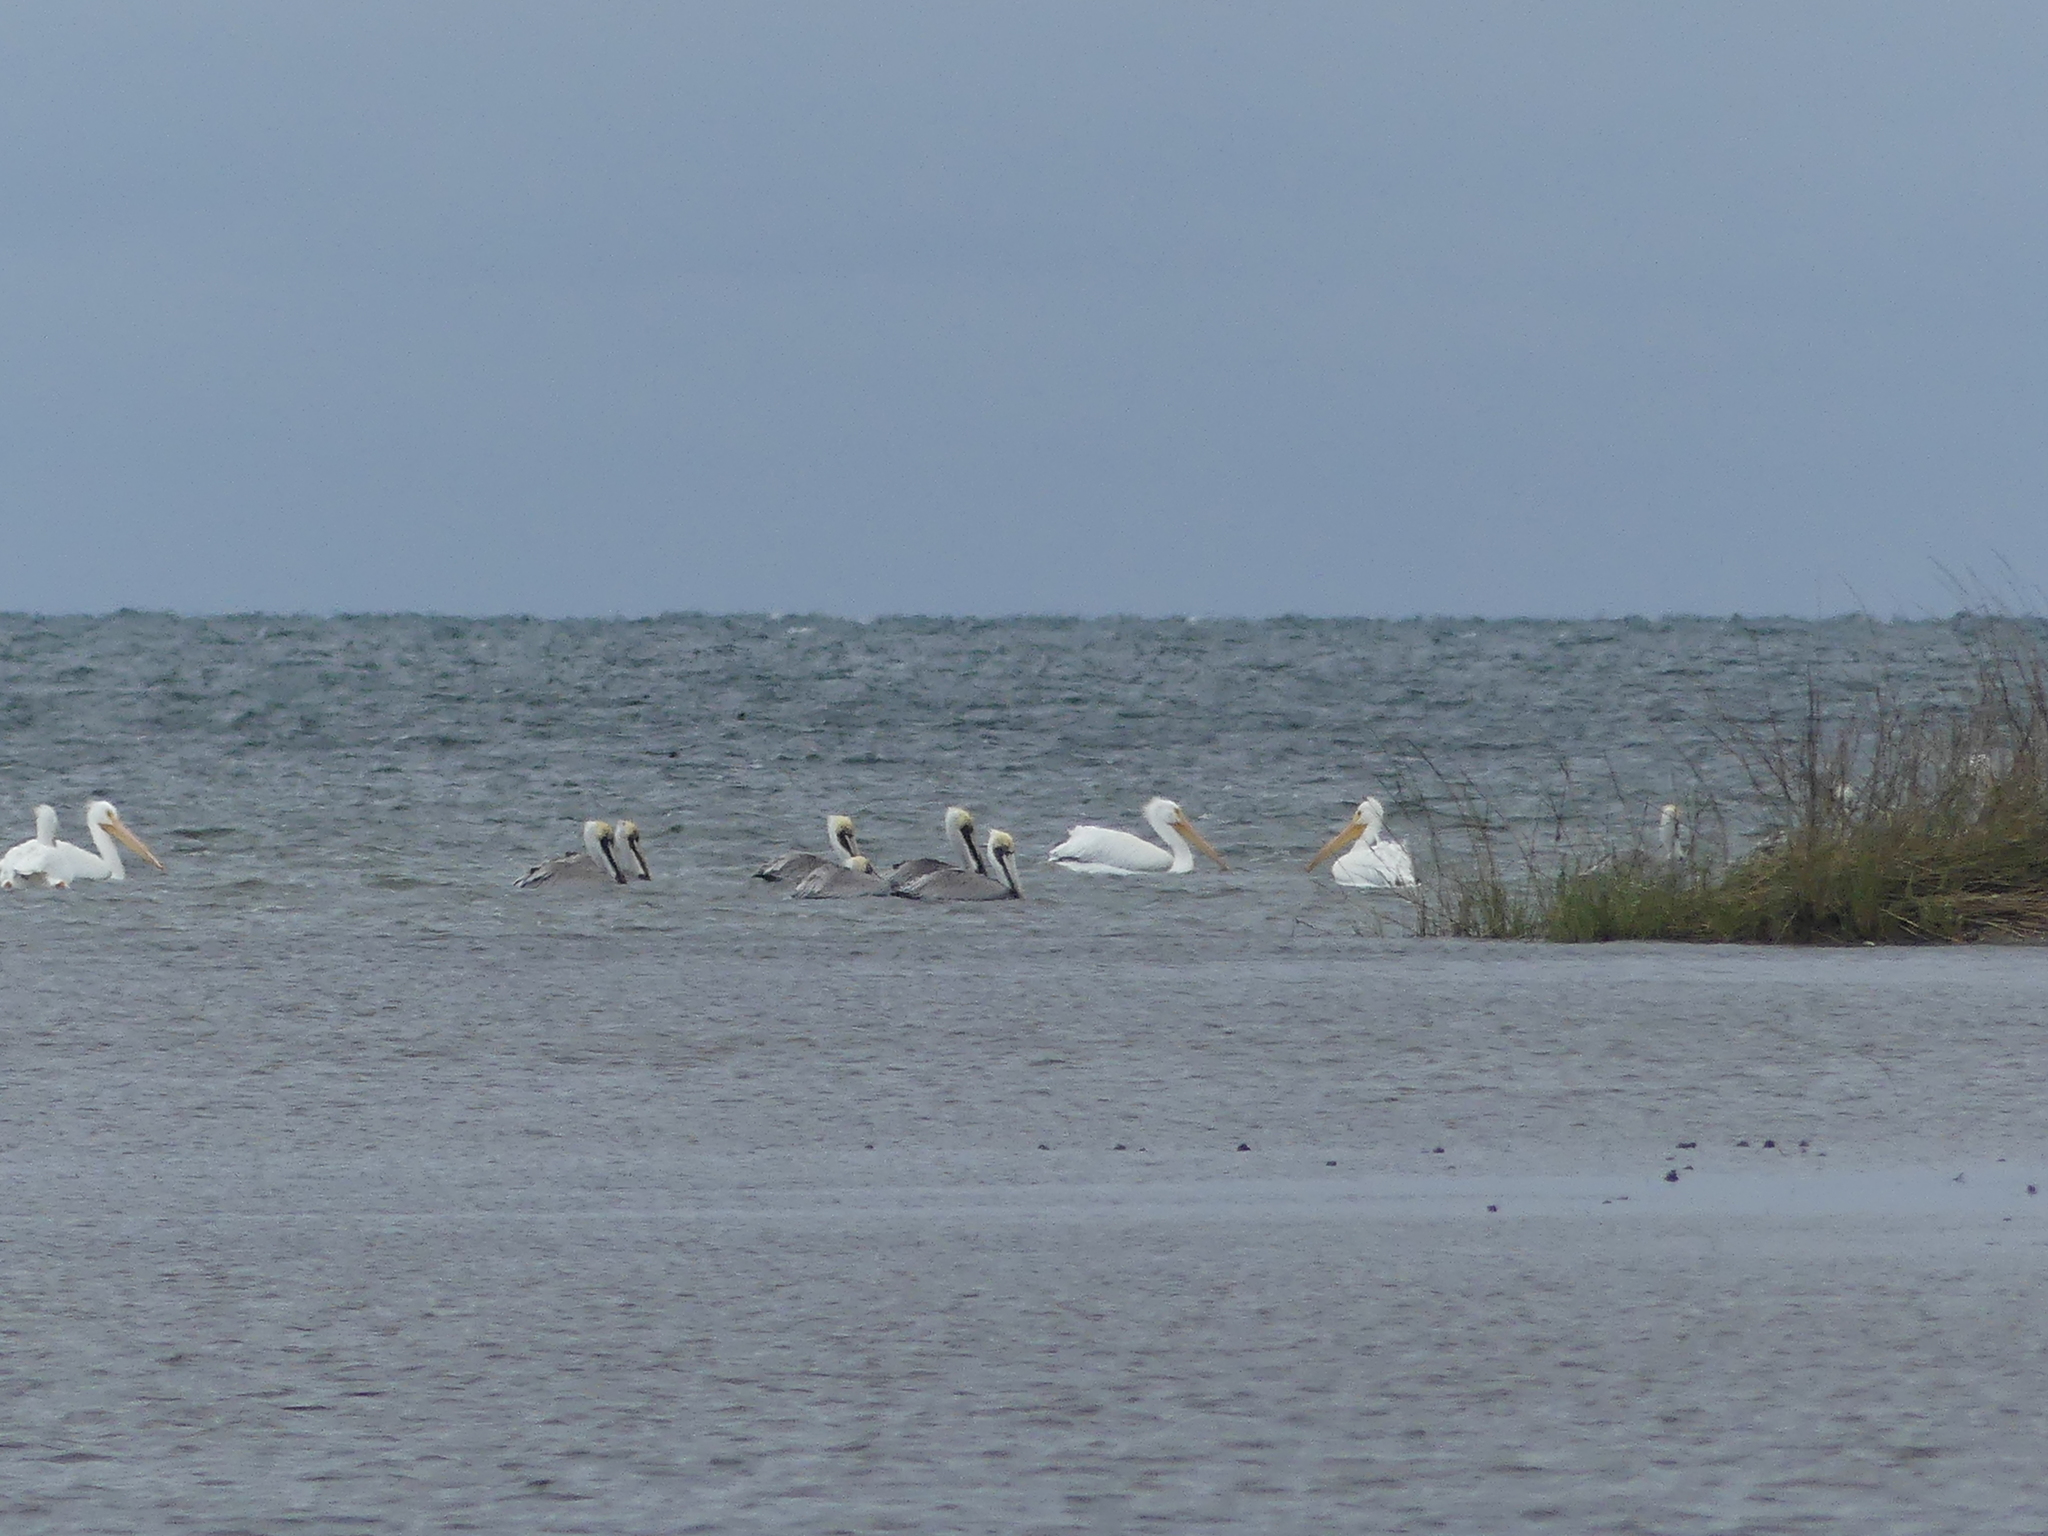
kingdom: Animalia
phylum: Chordata
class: Aves
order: Pelecaniformes
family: Pelecanidae
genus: Pelecanus
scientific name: Pelecanus erythrorhynchos
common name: American white pelican
